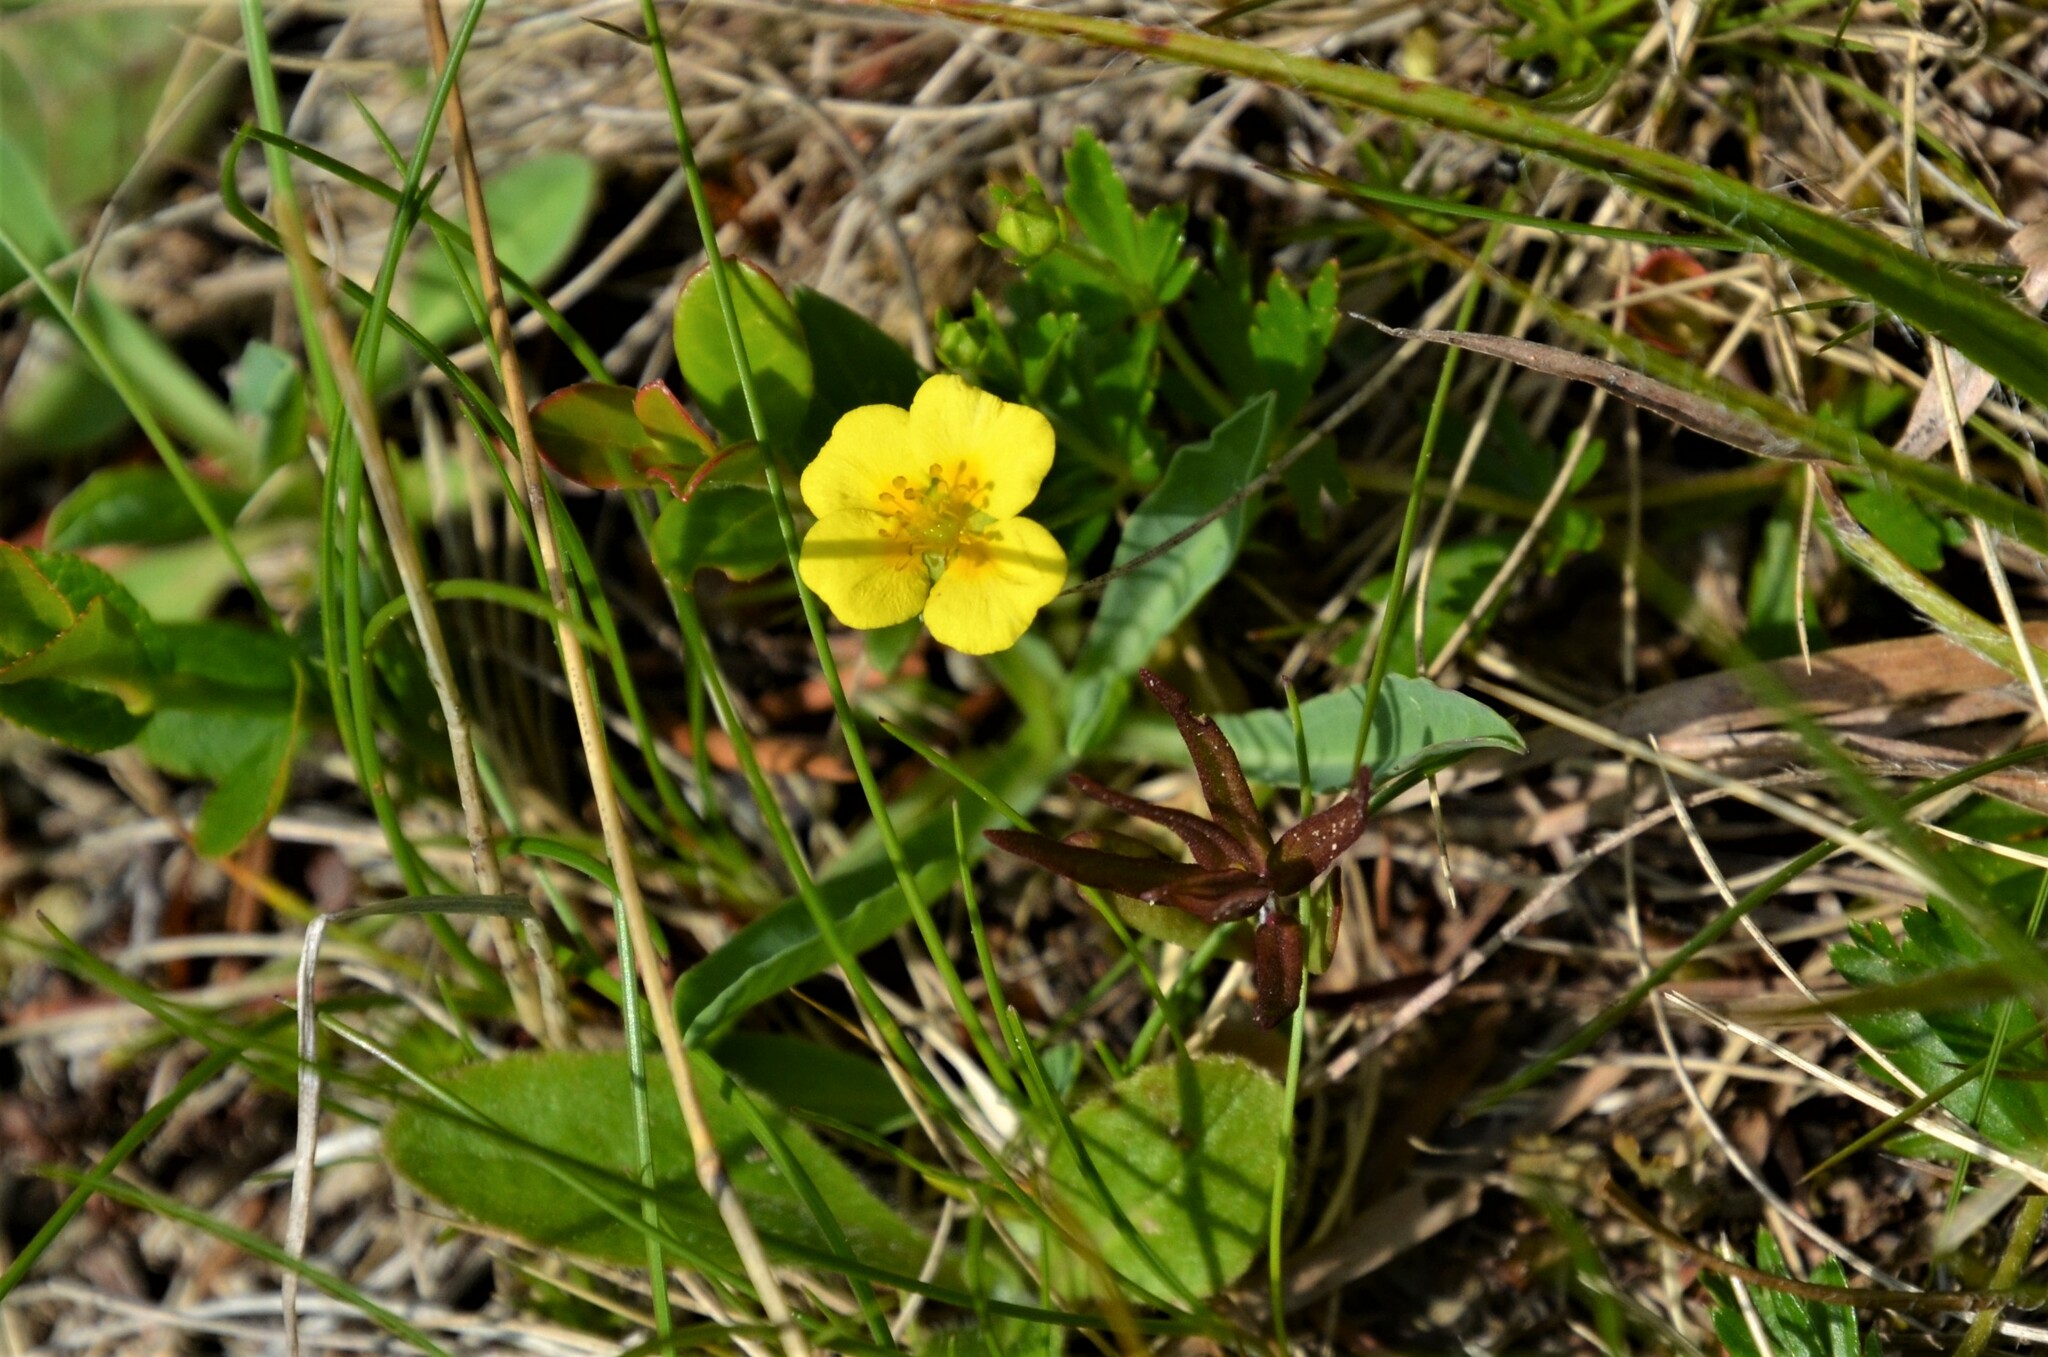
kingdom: Plantae
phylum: Tracheophyta
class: Magnoliopsida
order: Rosales
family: Rosaceae
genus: Potentilla
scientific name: Potentilla erecta
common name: Tormentil
